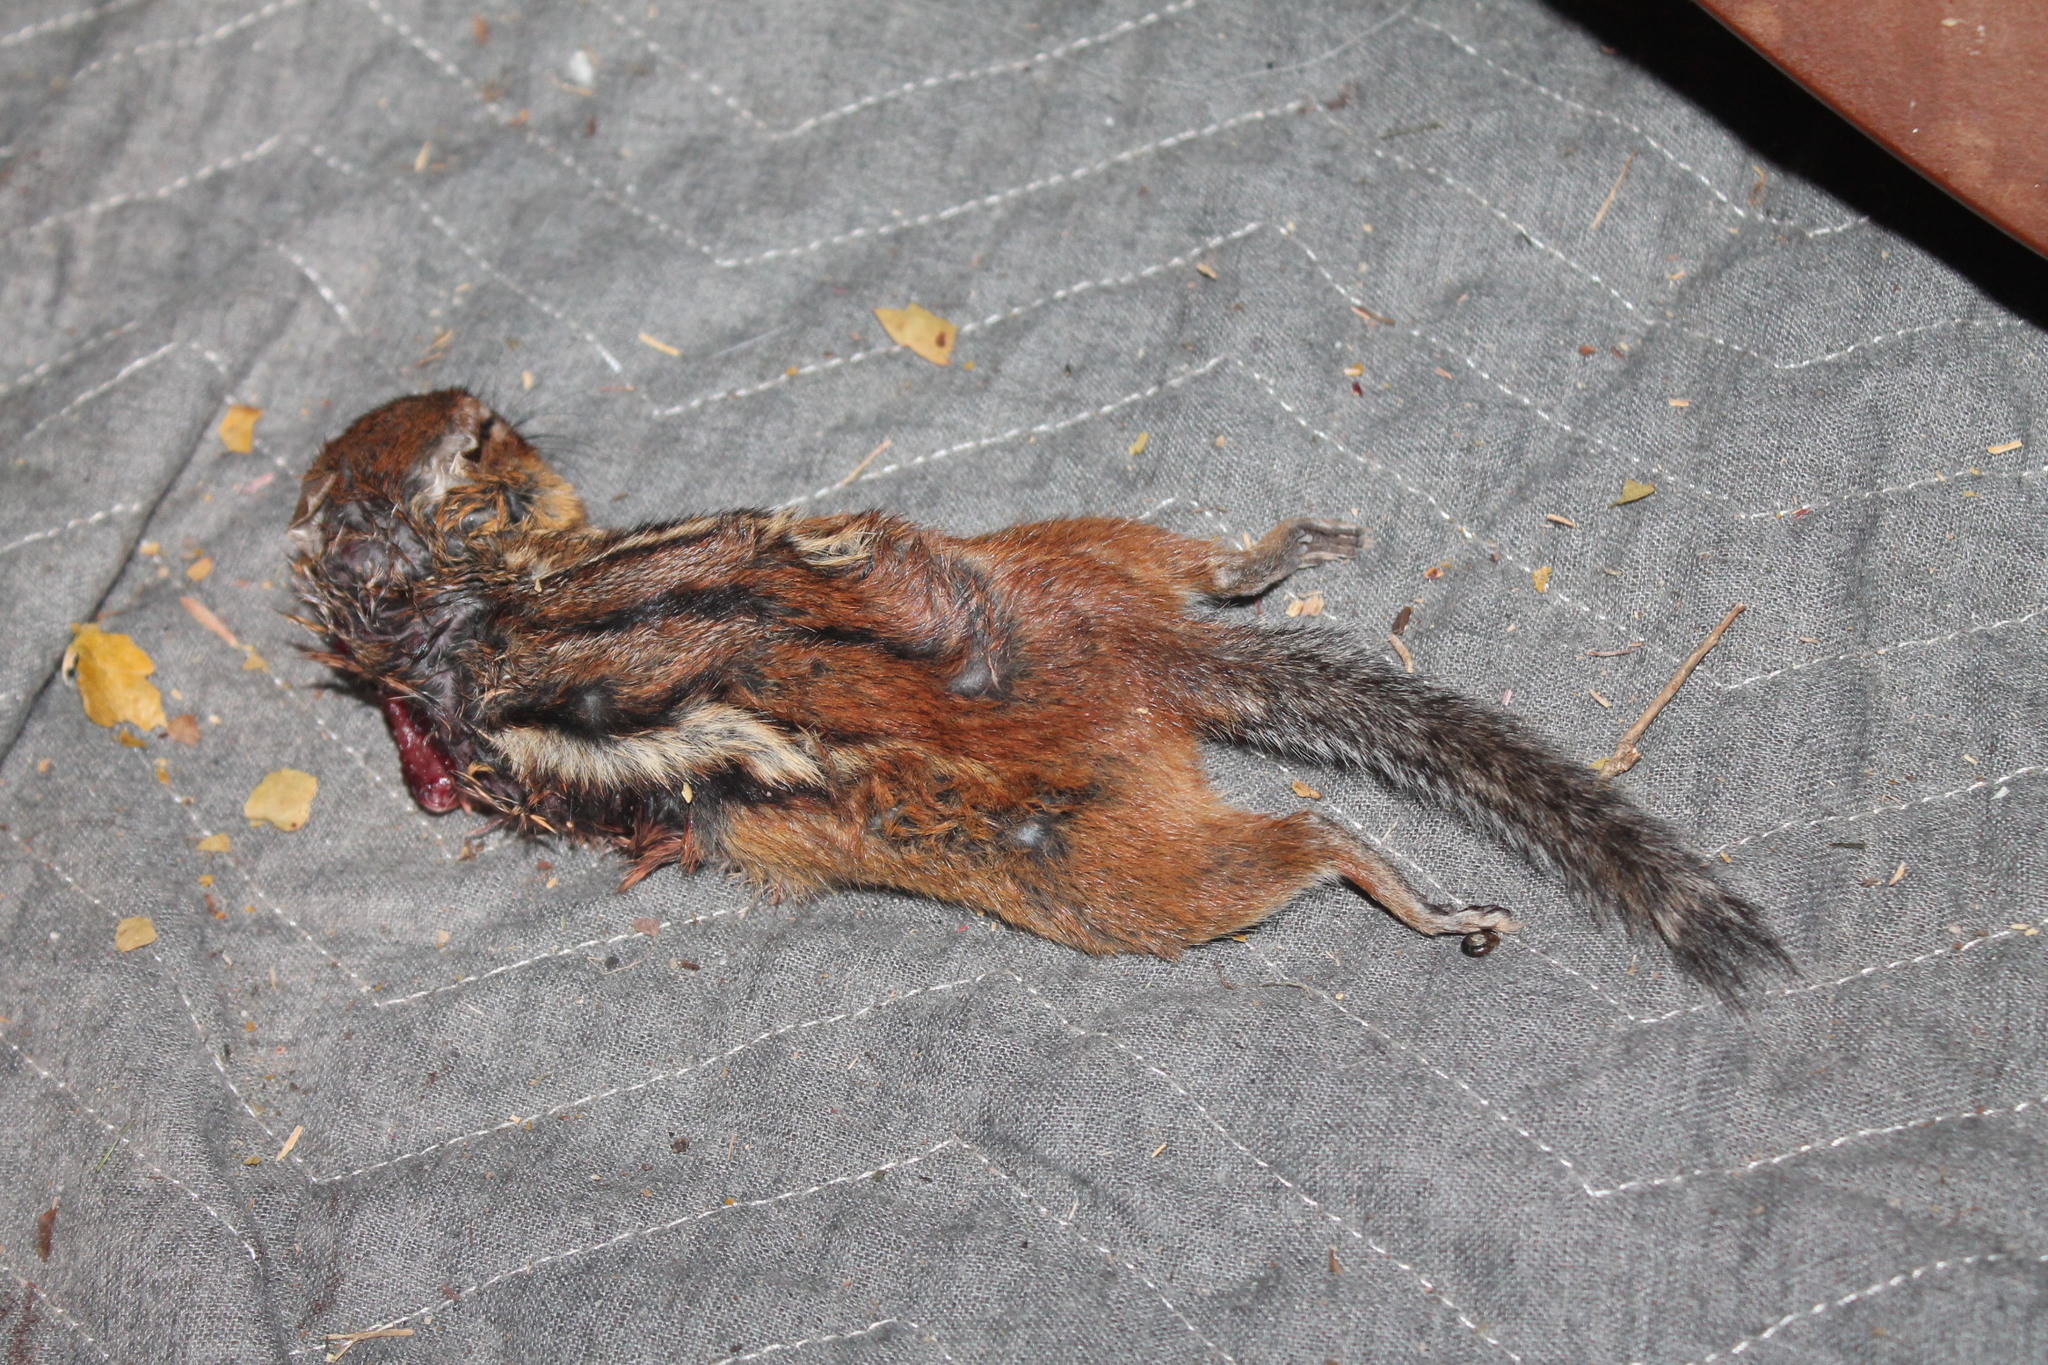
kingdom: Animalia
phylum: Chordata
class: Mammalia
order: Rodentia
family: Sciuridae
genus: Tamias
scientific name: Tamias striatus
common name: Eastern chipmunk
